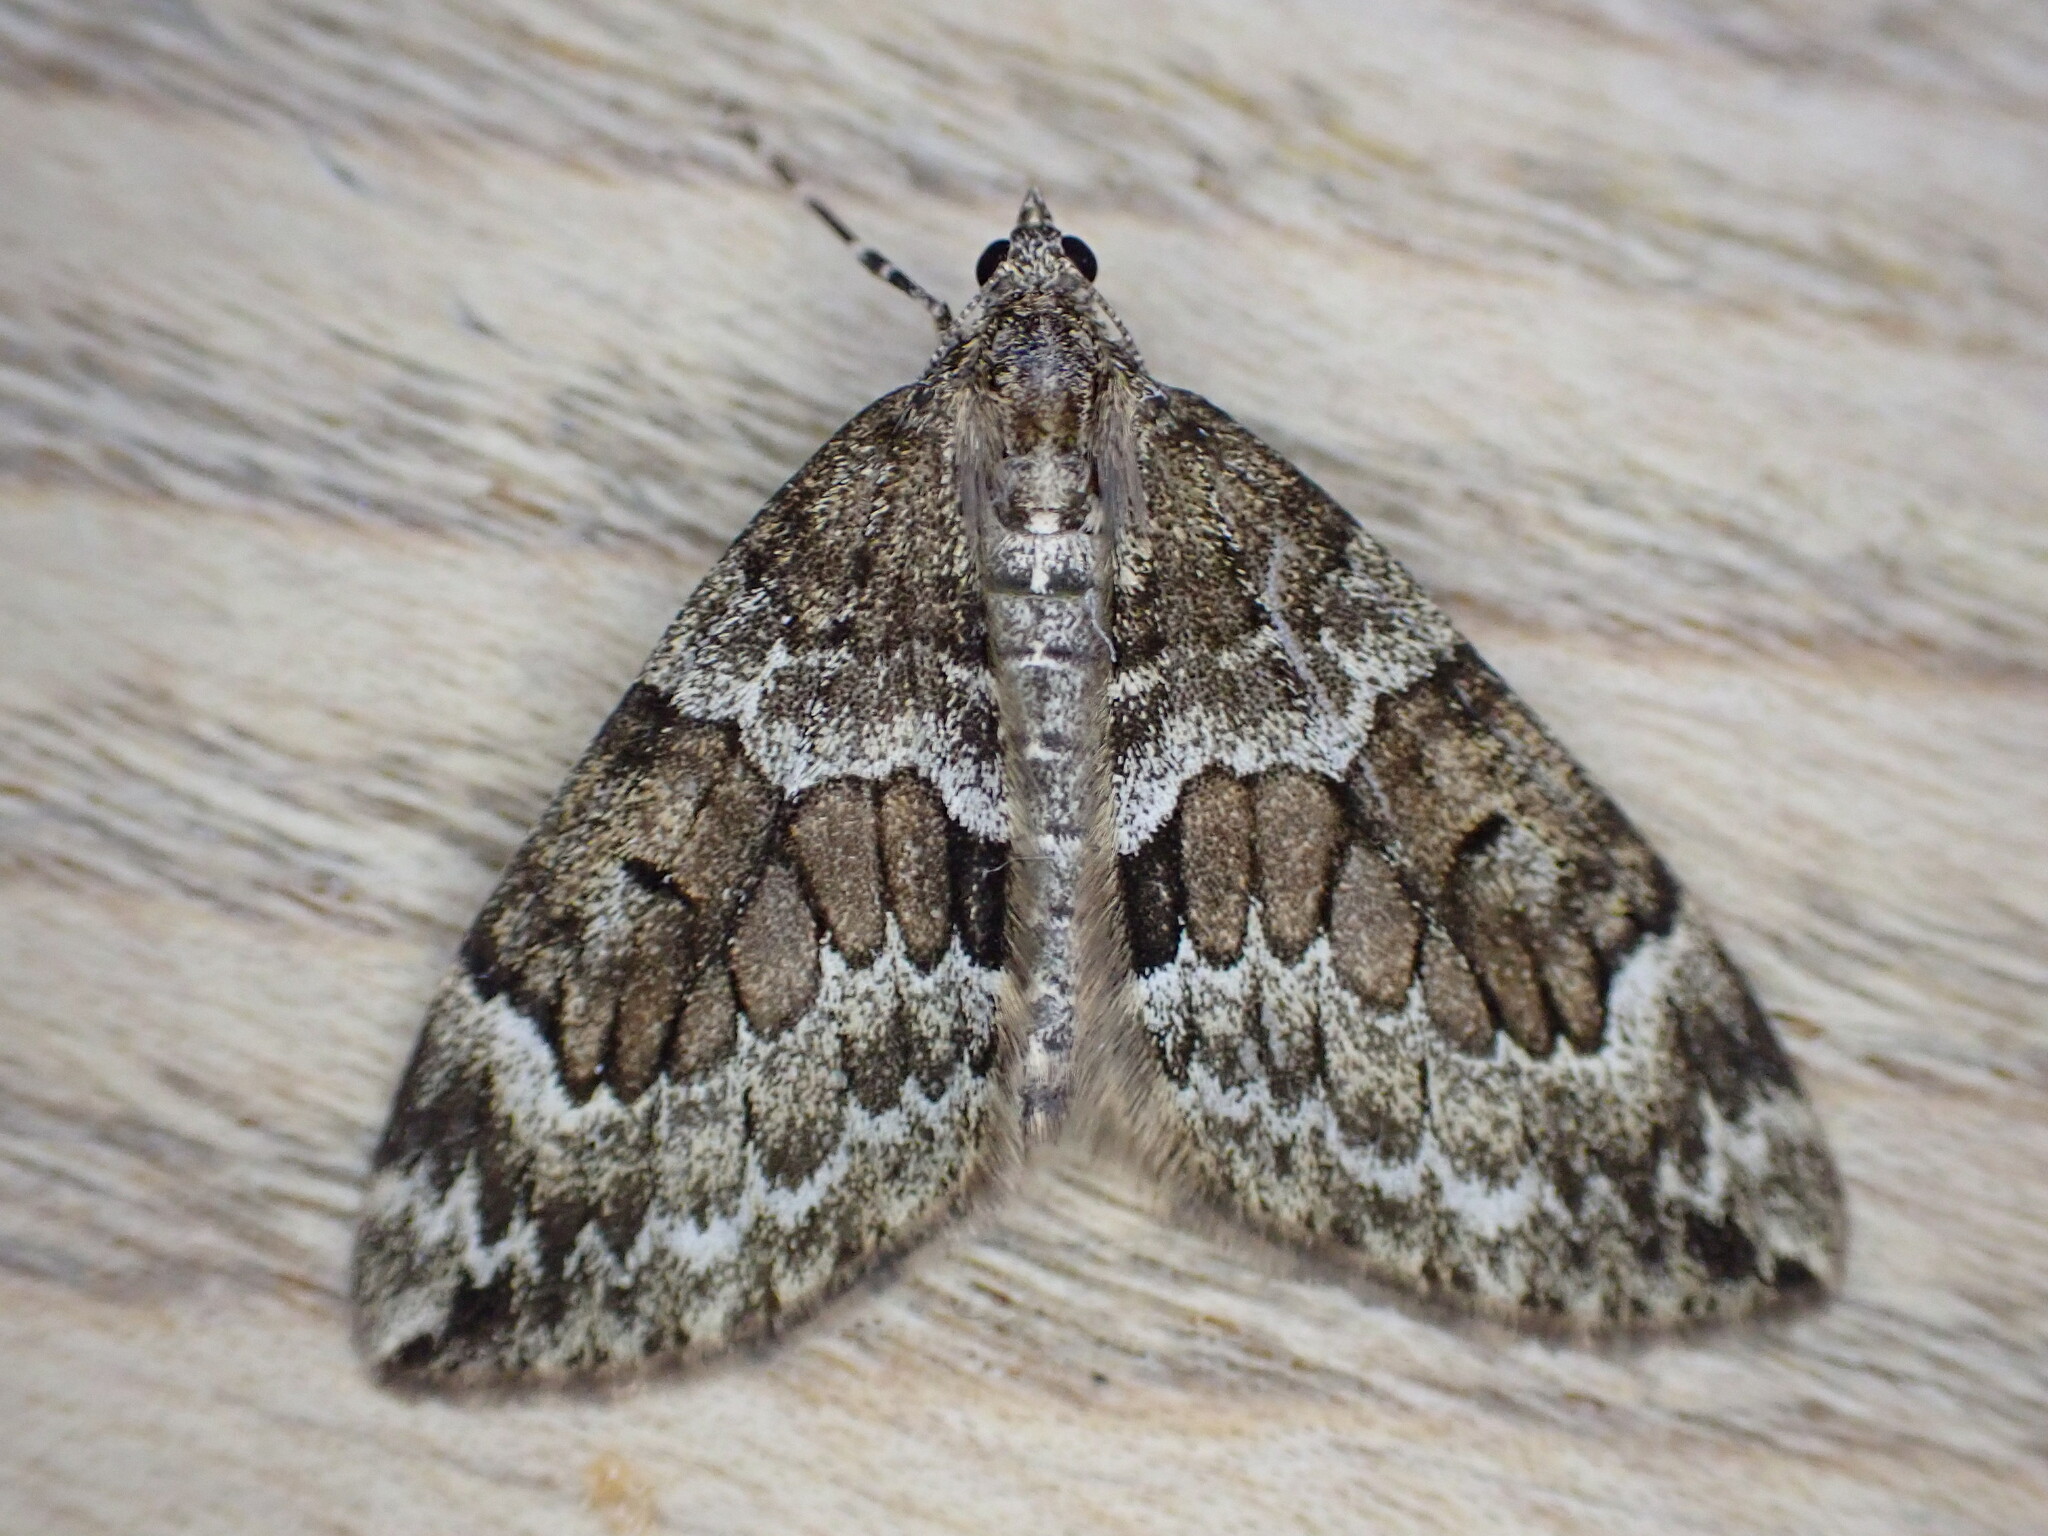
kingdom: Animalia
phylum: Arthropoda
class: Insecta
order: Lepidoptera
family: Geometridae
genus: Thera
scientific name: Thera britannica
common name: Spruce carpet
